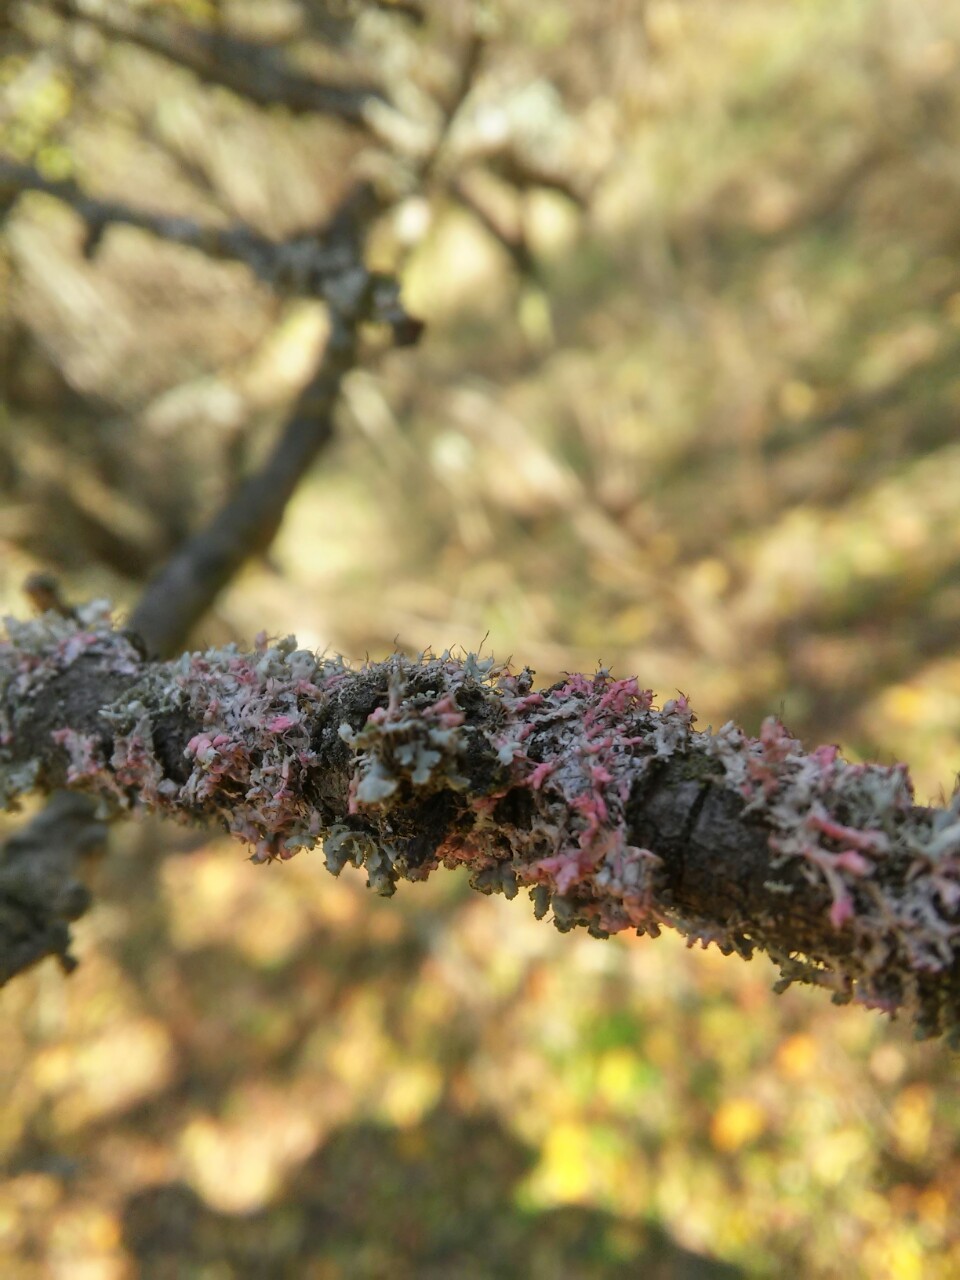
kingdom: Fungi
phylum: Basidiomycota
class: Agaricomycetes
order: Corticiales
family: Corticiaceae
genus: Laetisaria
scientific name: Laetisaria lichenicola
